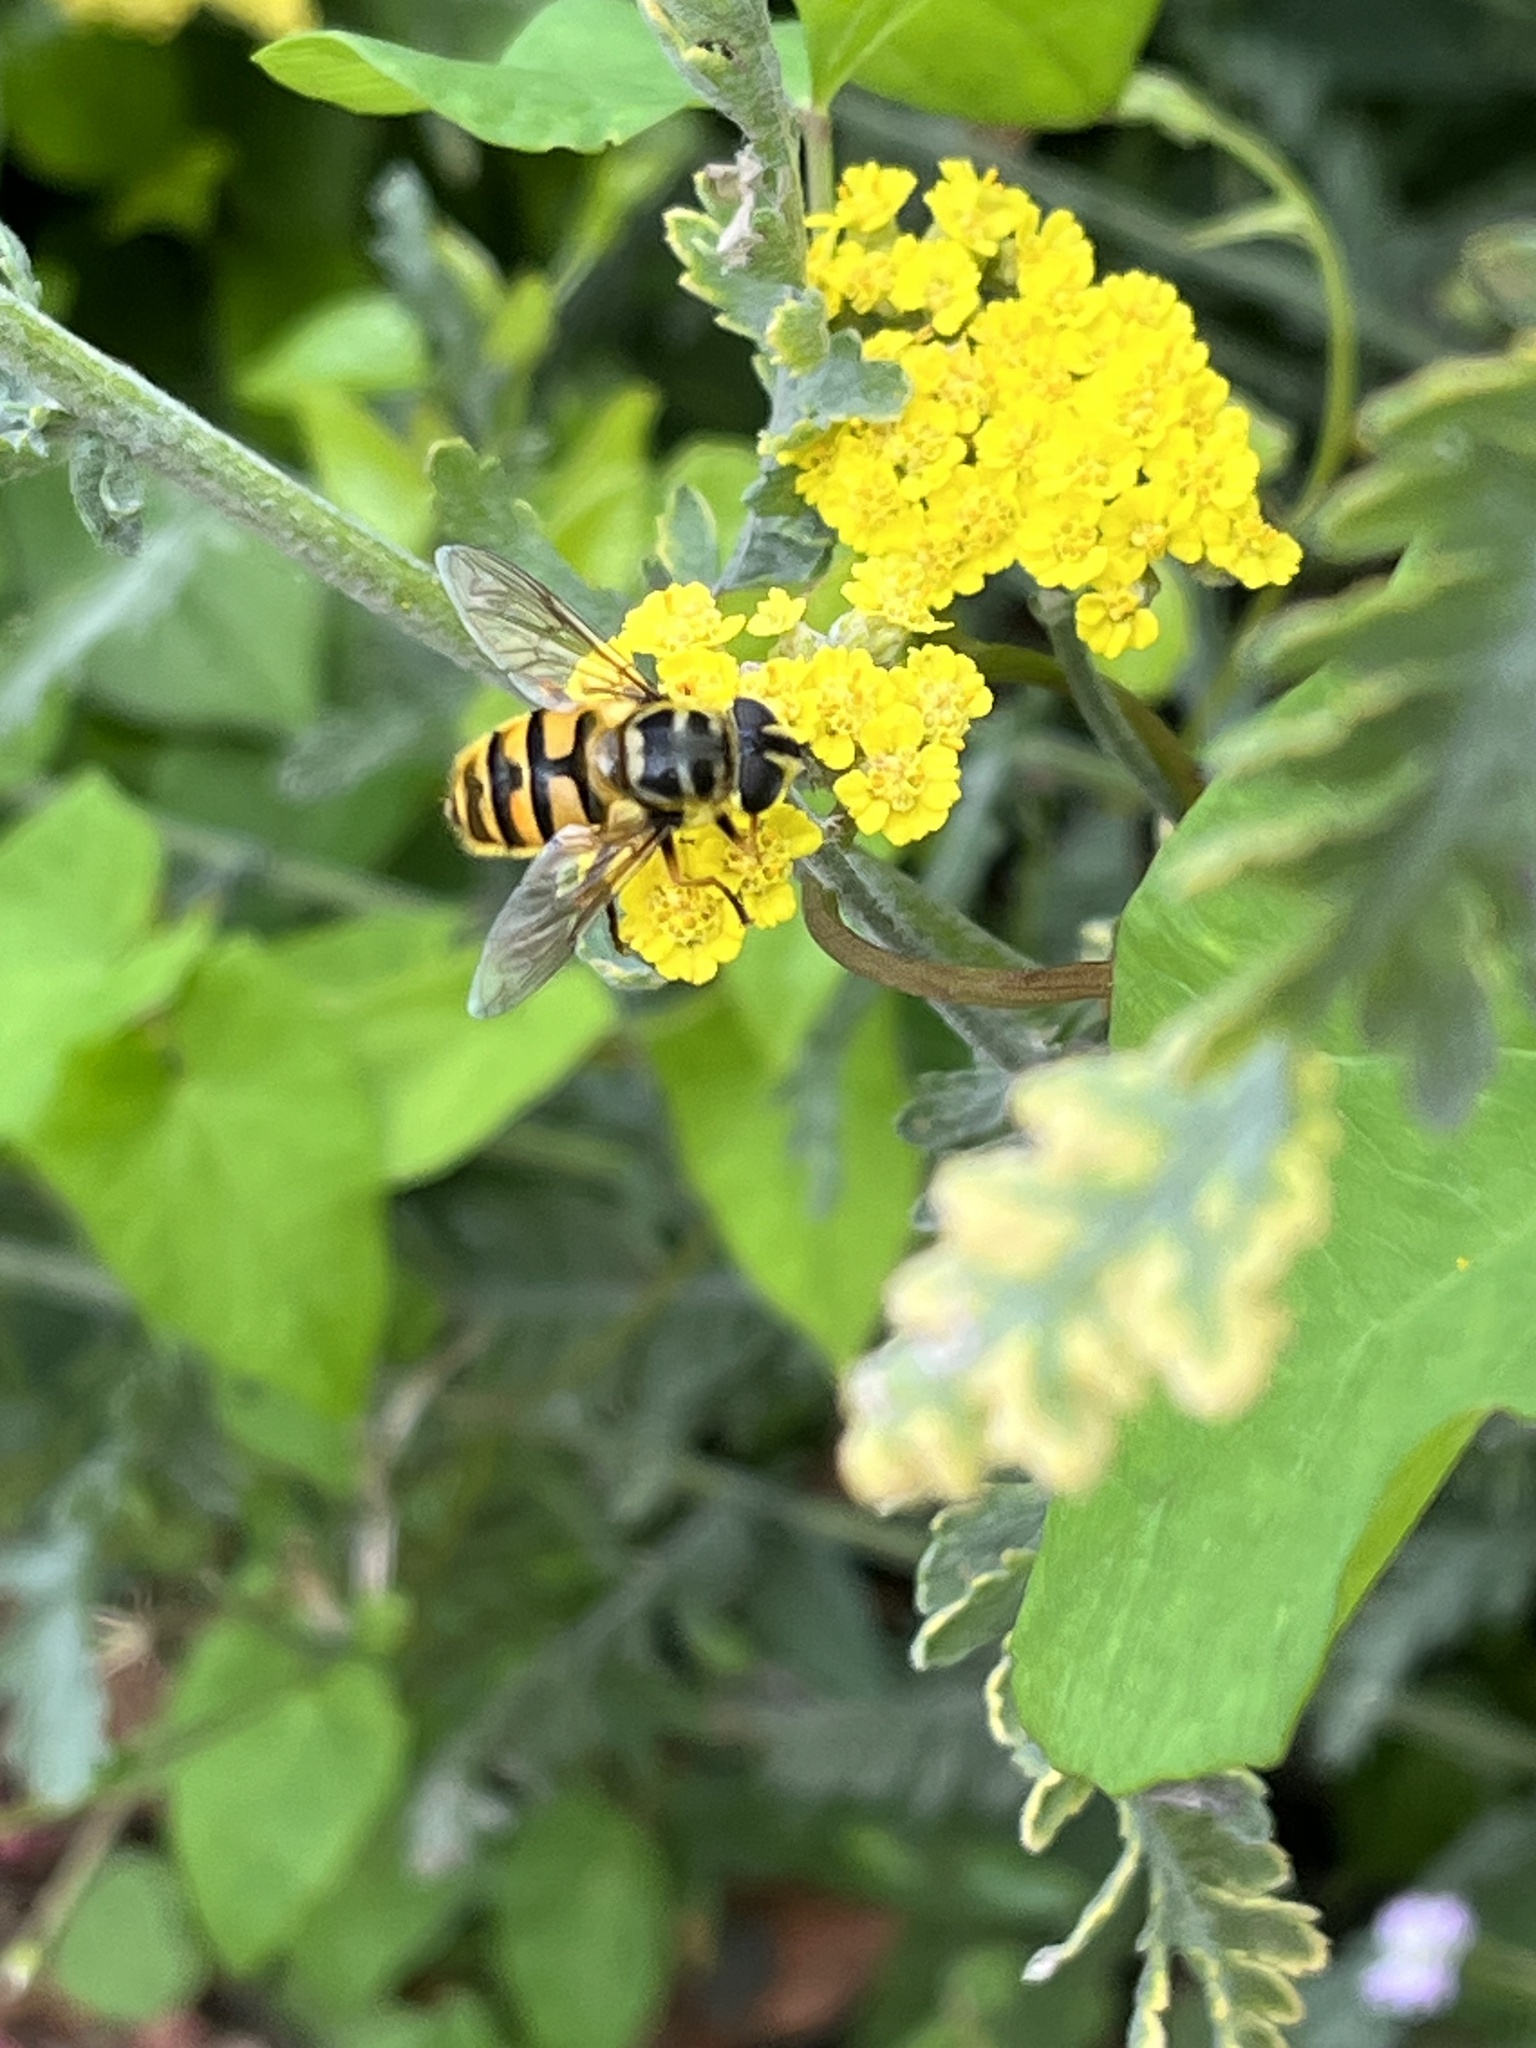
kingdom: Animalia
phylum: Arthropoda
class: Insecta
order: Diptera
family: Syrphidae
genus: Myathropa
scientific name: Myathropa florea
